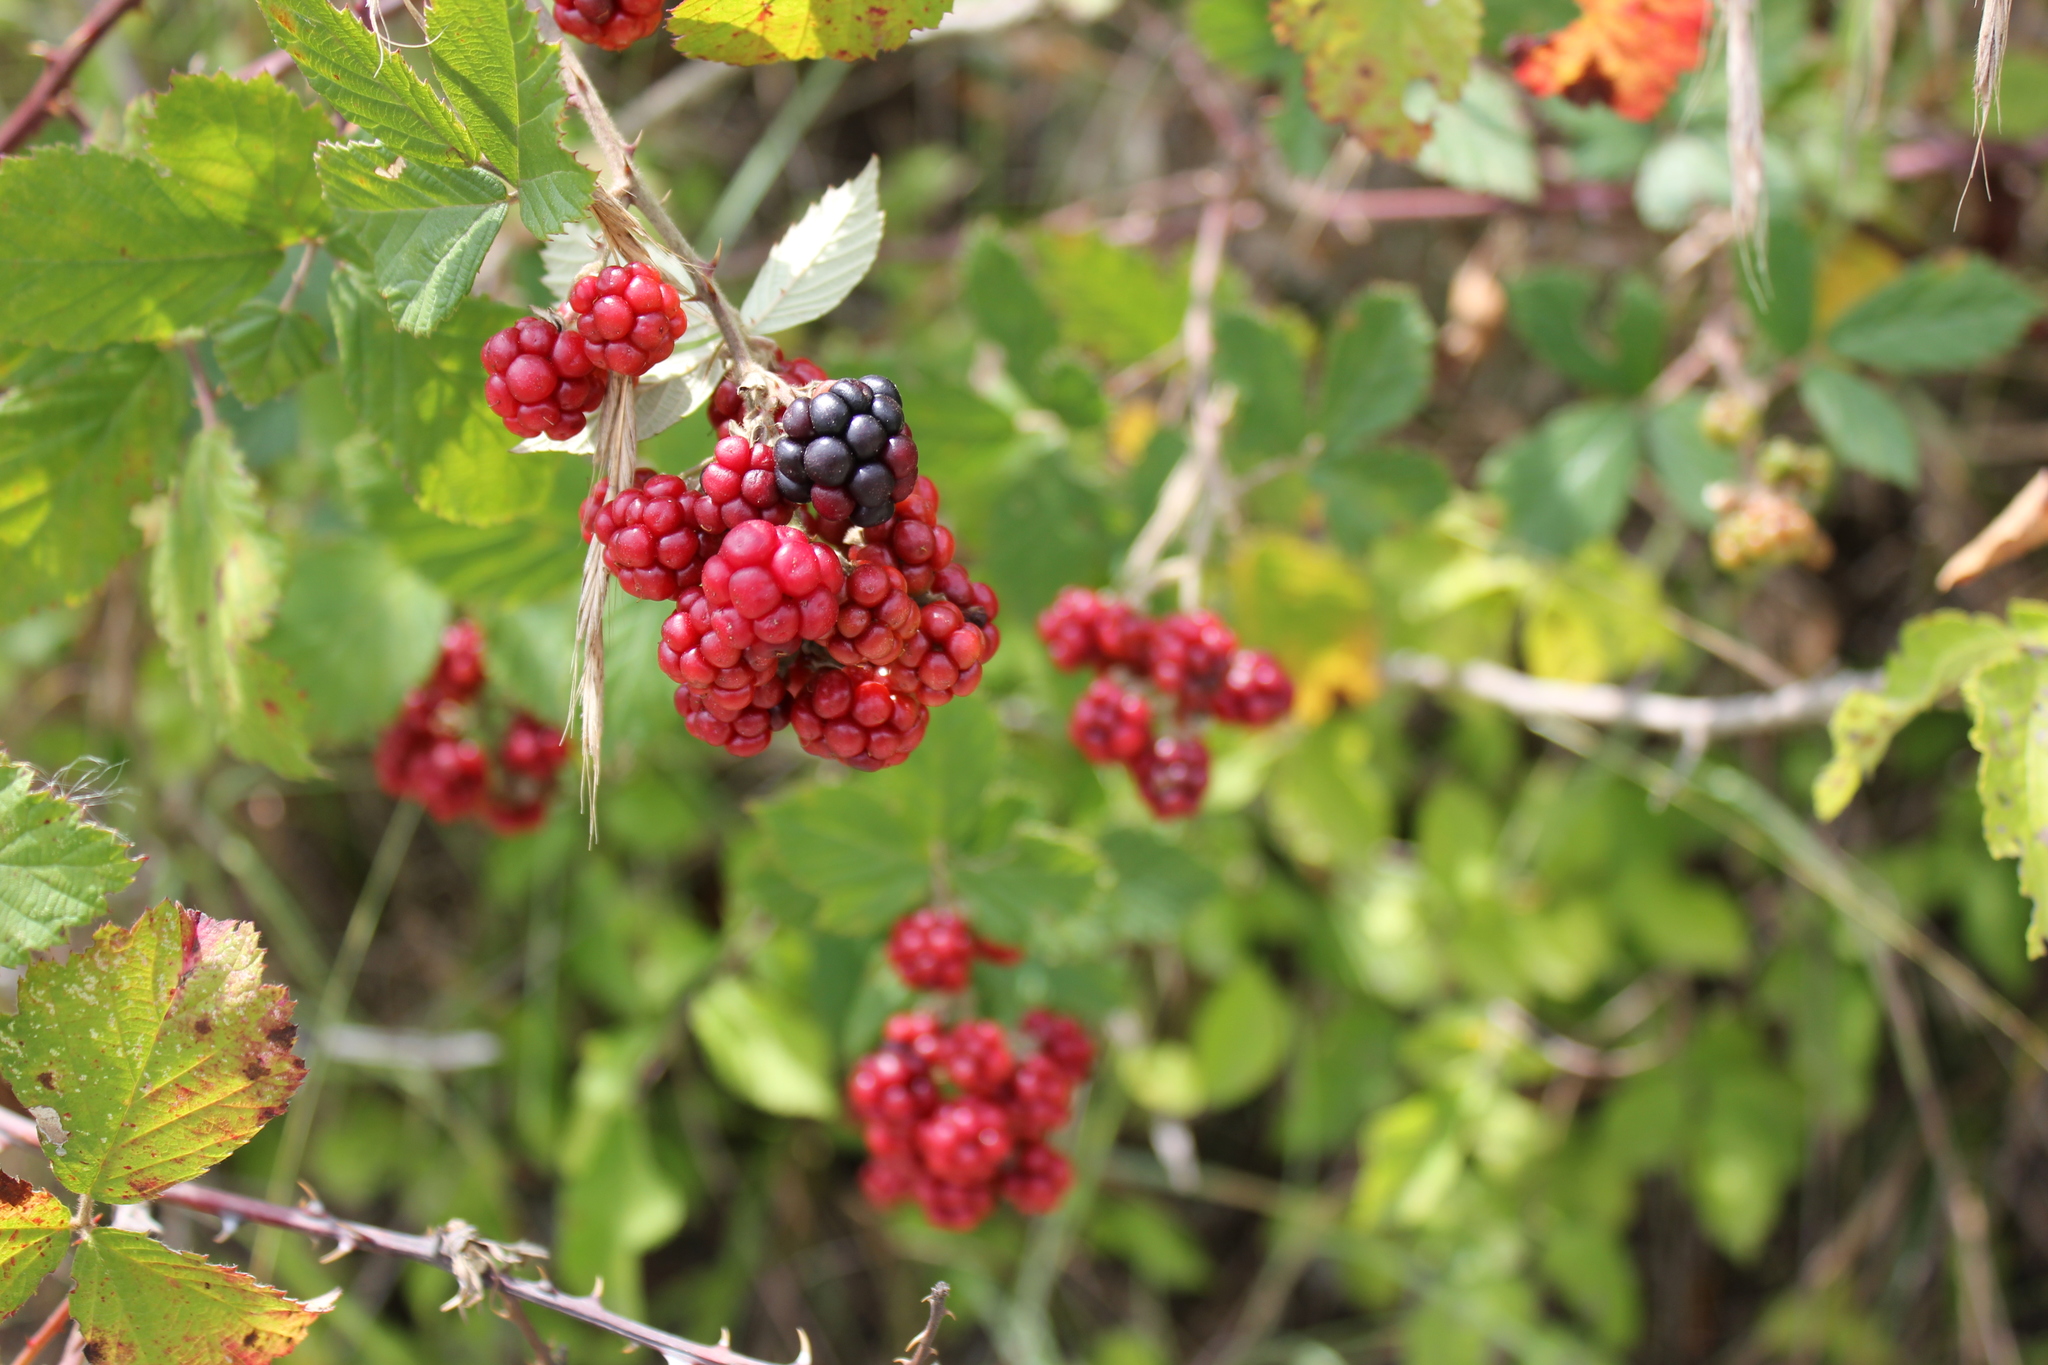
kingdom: Plantae
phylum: Tracheophyta
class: Magnoliopsida
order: Rosales
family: Rosaceae
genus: Rubus
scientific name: Rubus
